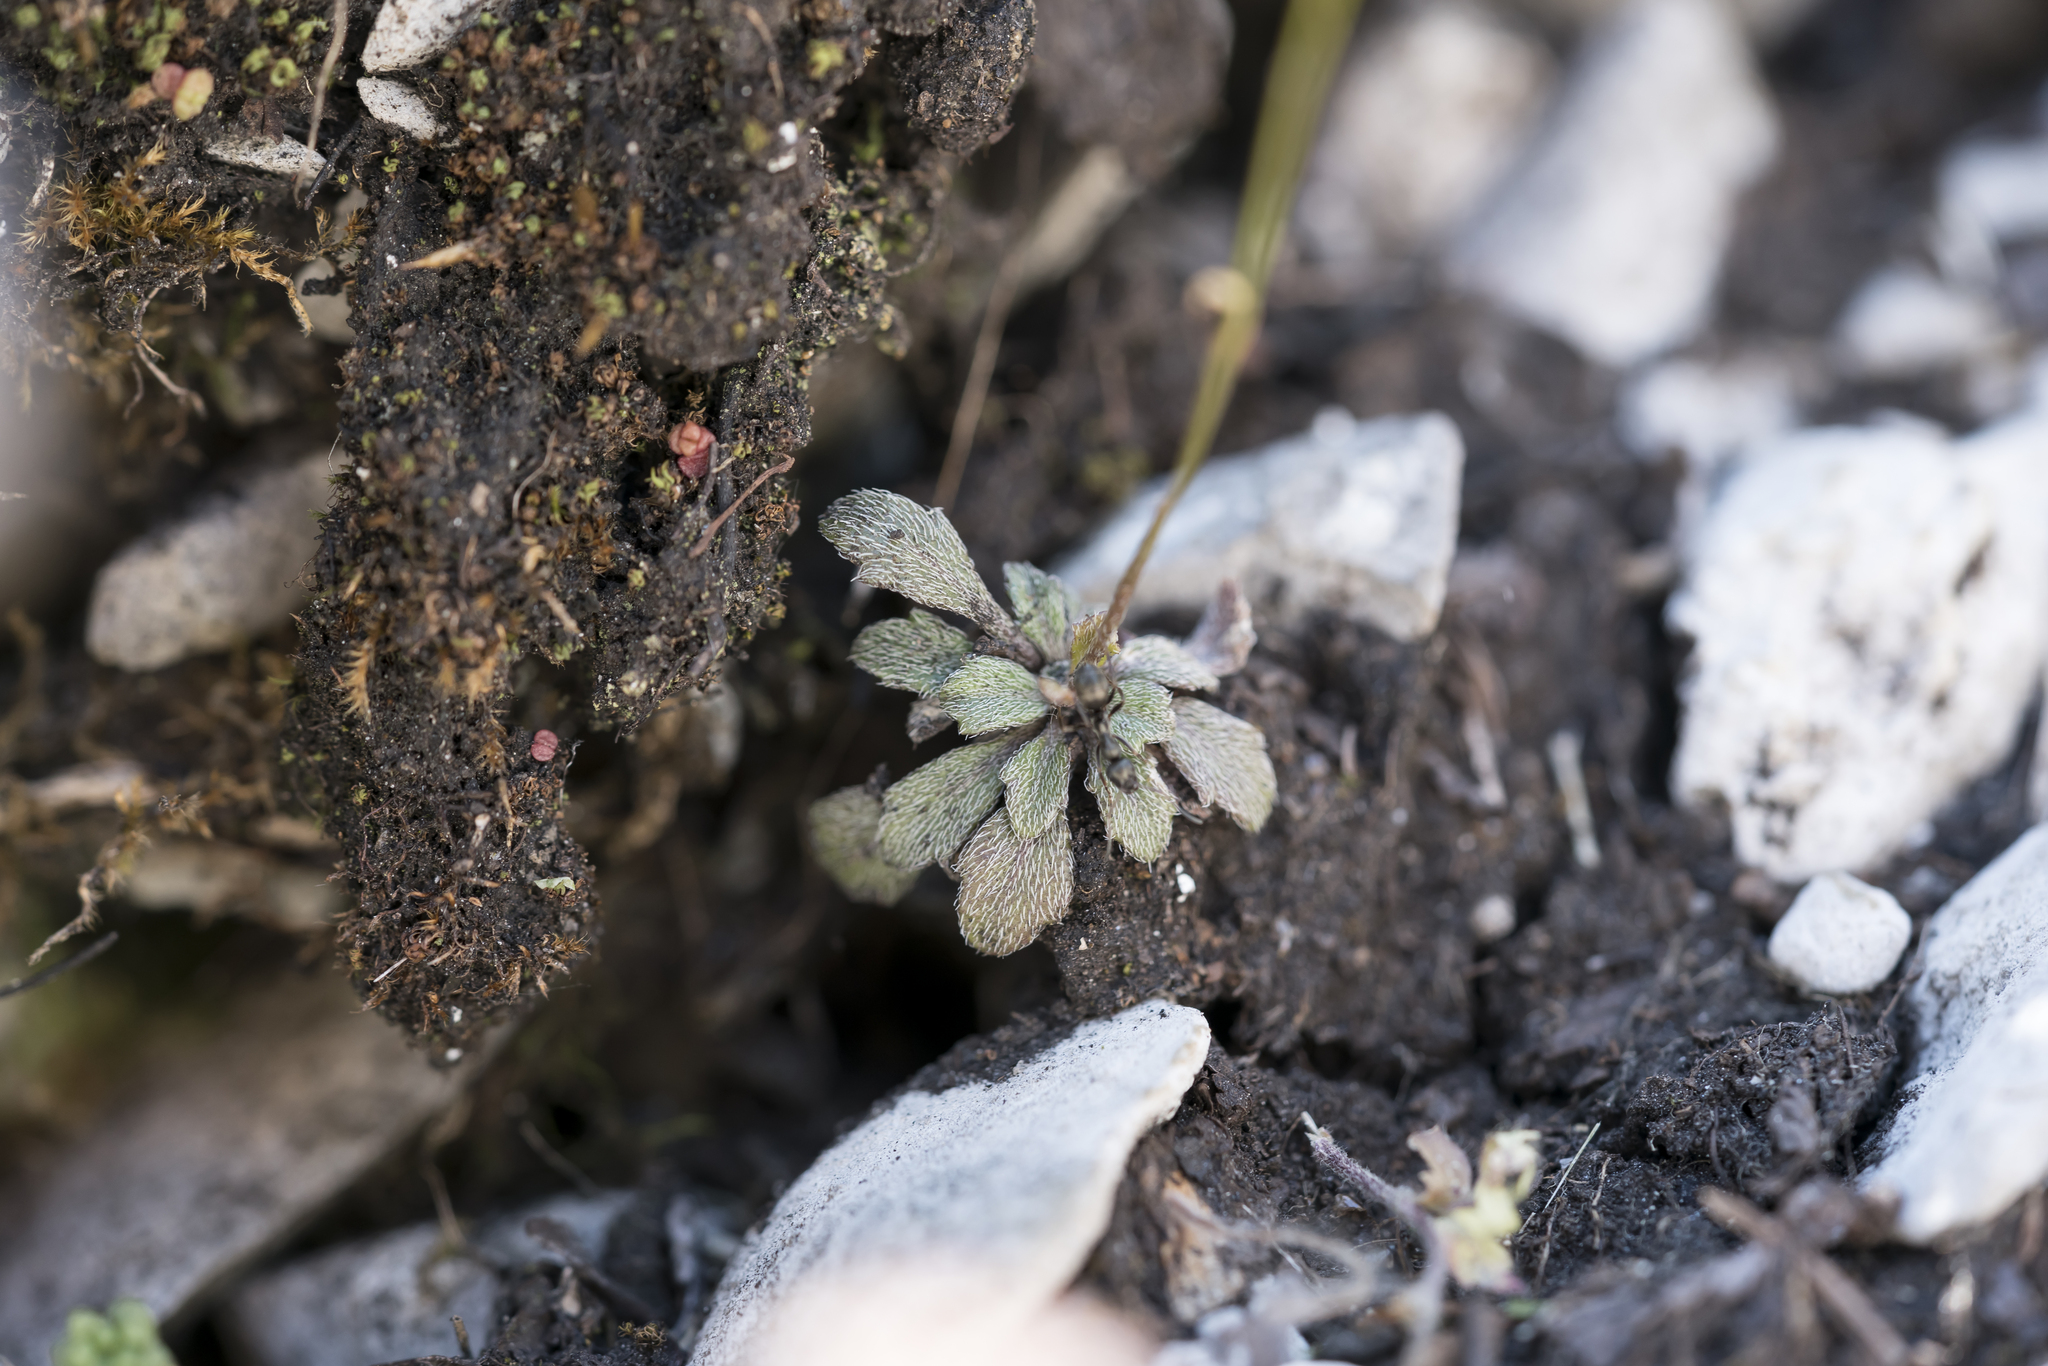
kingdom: Plantae
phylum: Tracheophyta
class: Magnoliopsida
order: Brassicales
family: Brassicaceae
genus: Kernera
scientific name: Kernera saxatilis
